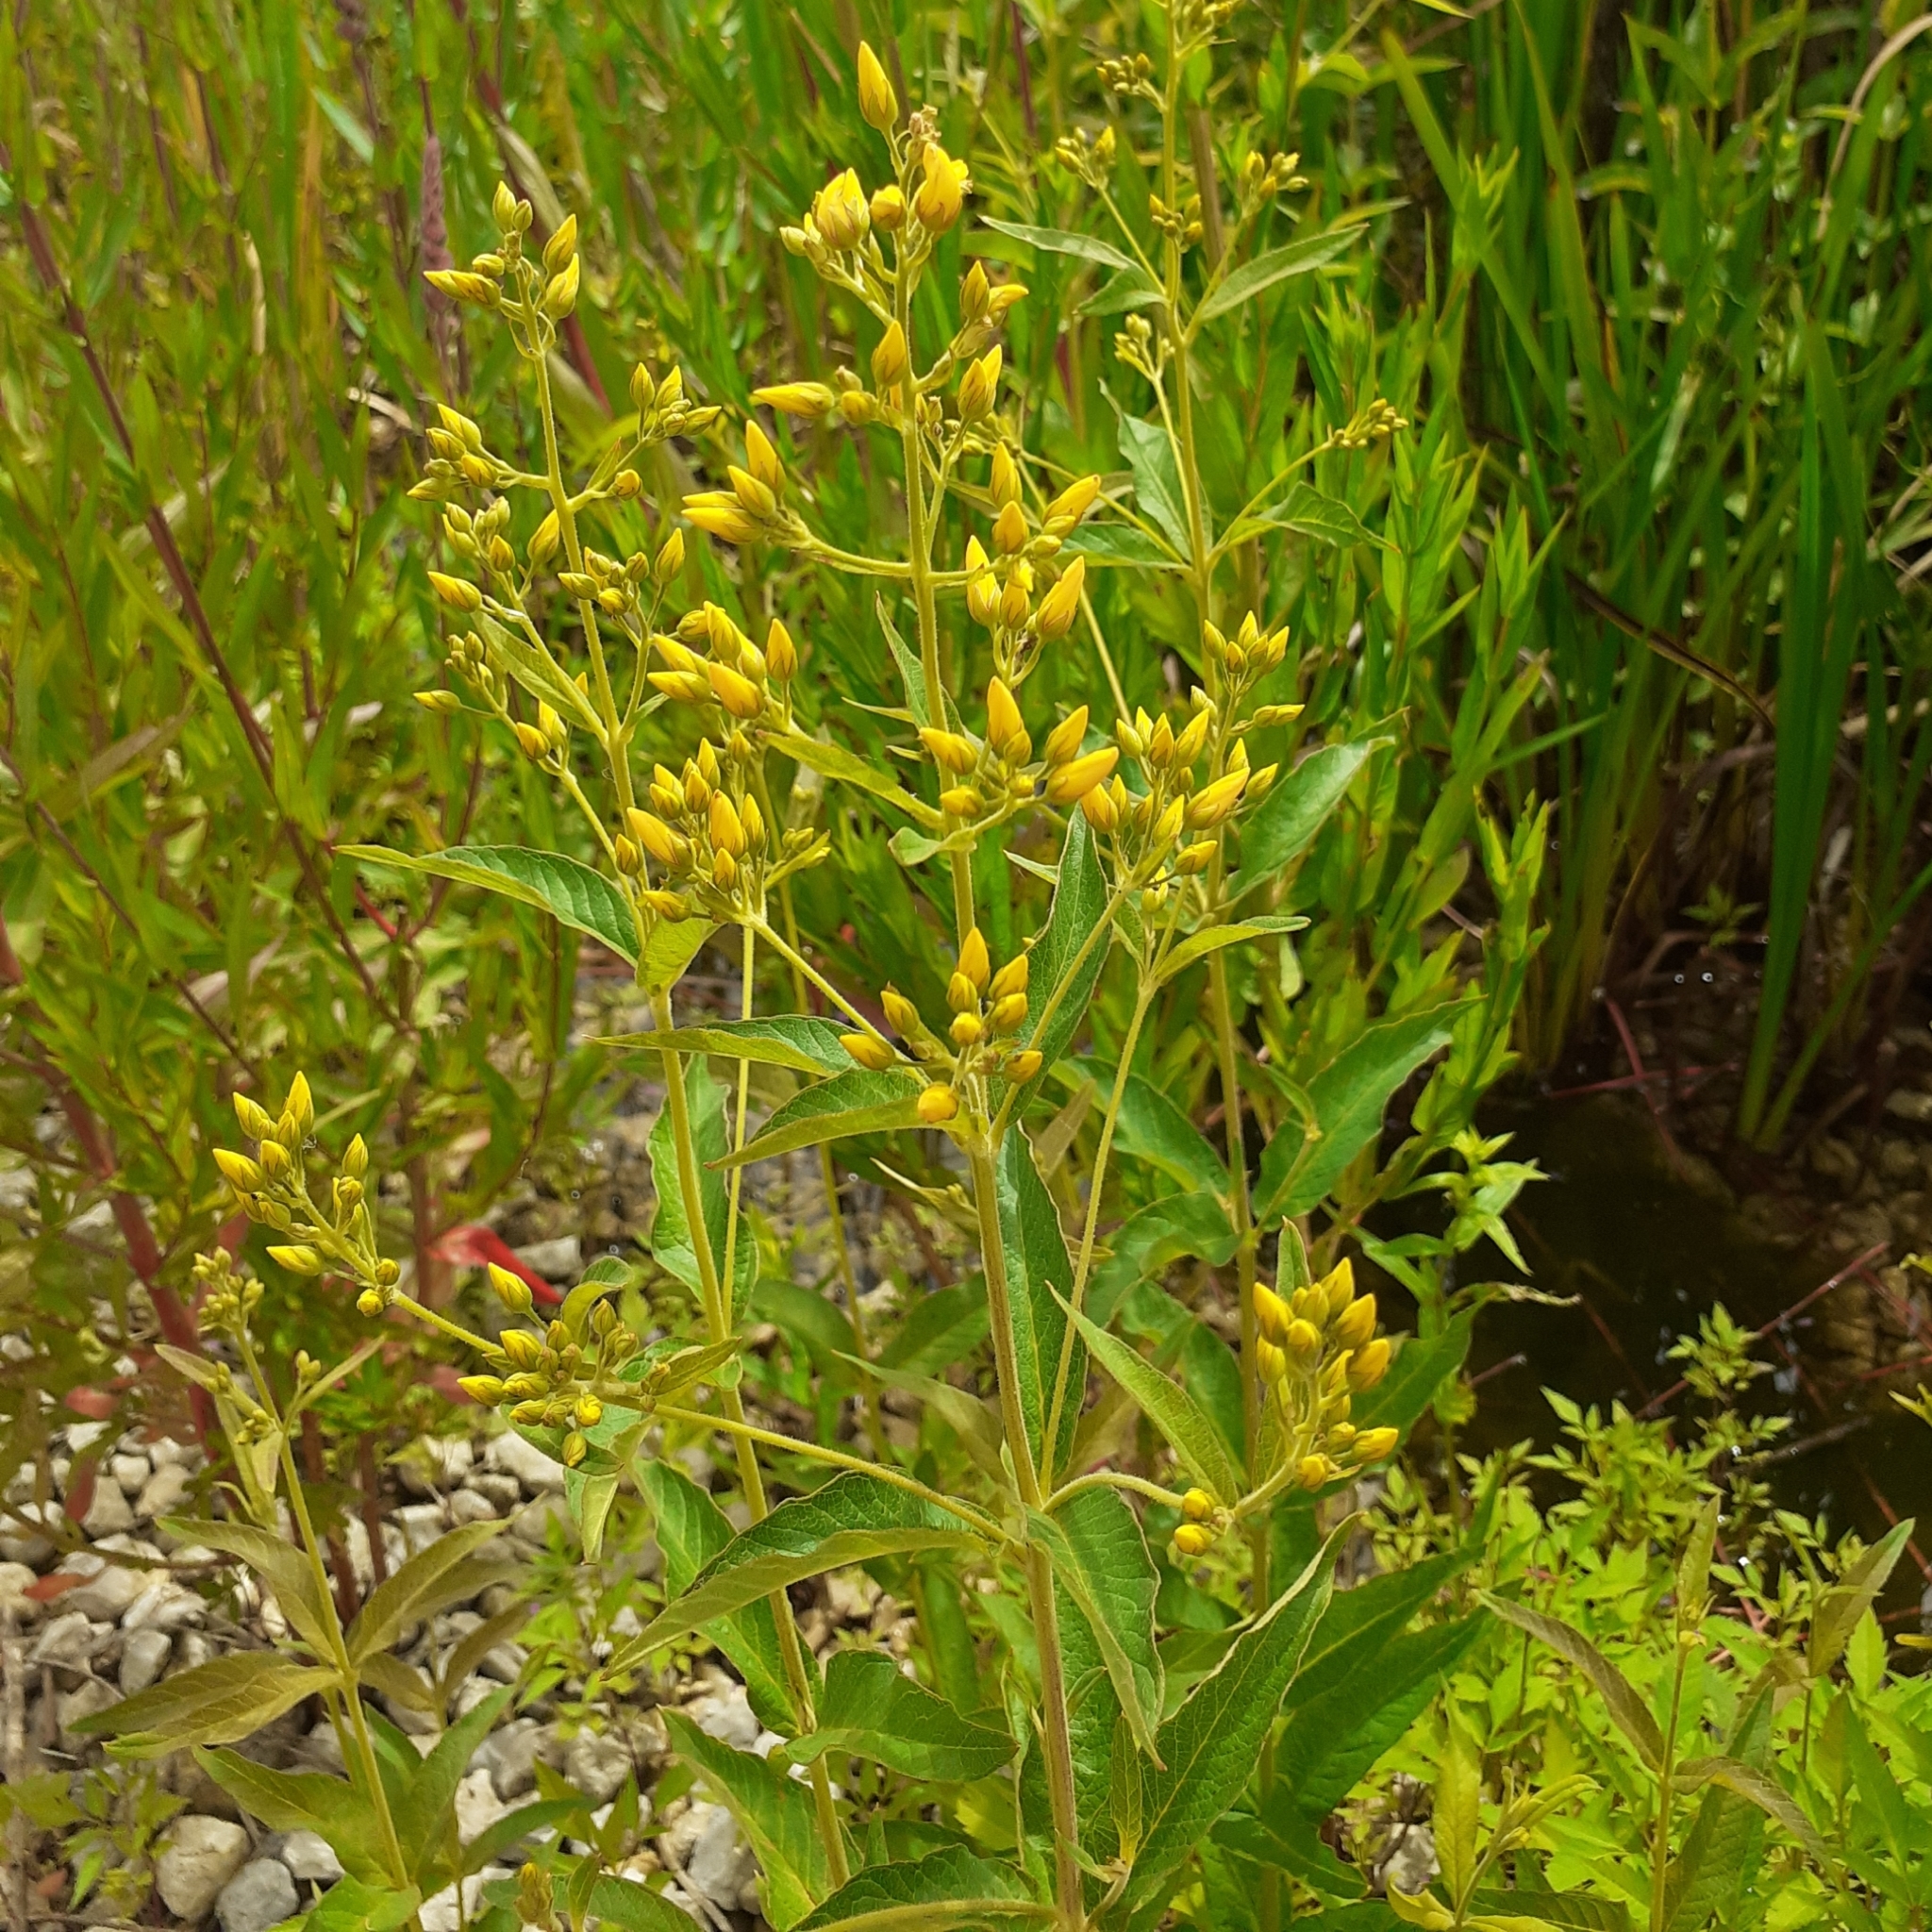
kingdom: Plantae
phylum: Tracheophyta
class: Magnoliopsida
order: Ericales
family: Primulaceae
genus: Lysimachia
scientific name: Lysimachia vulgaris
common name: Yellow loosestrife
